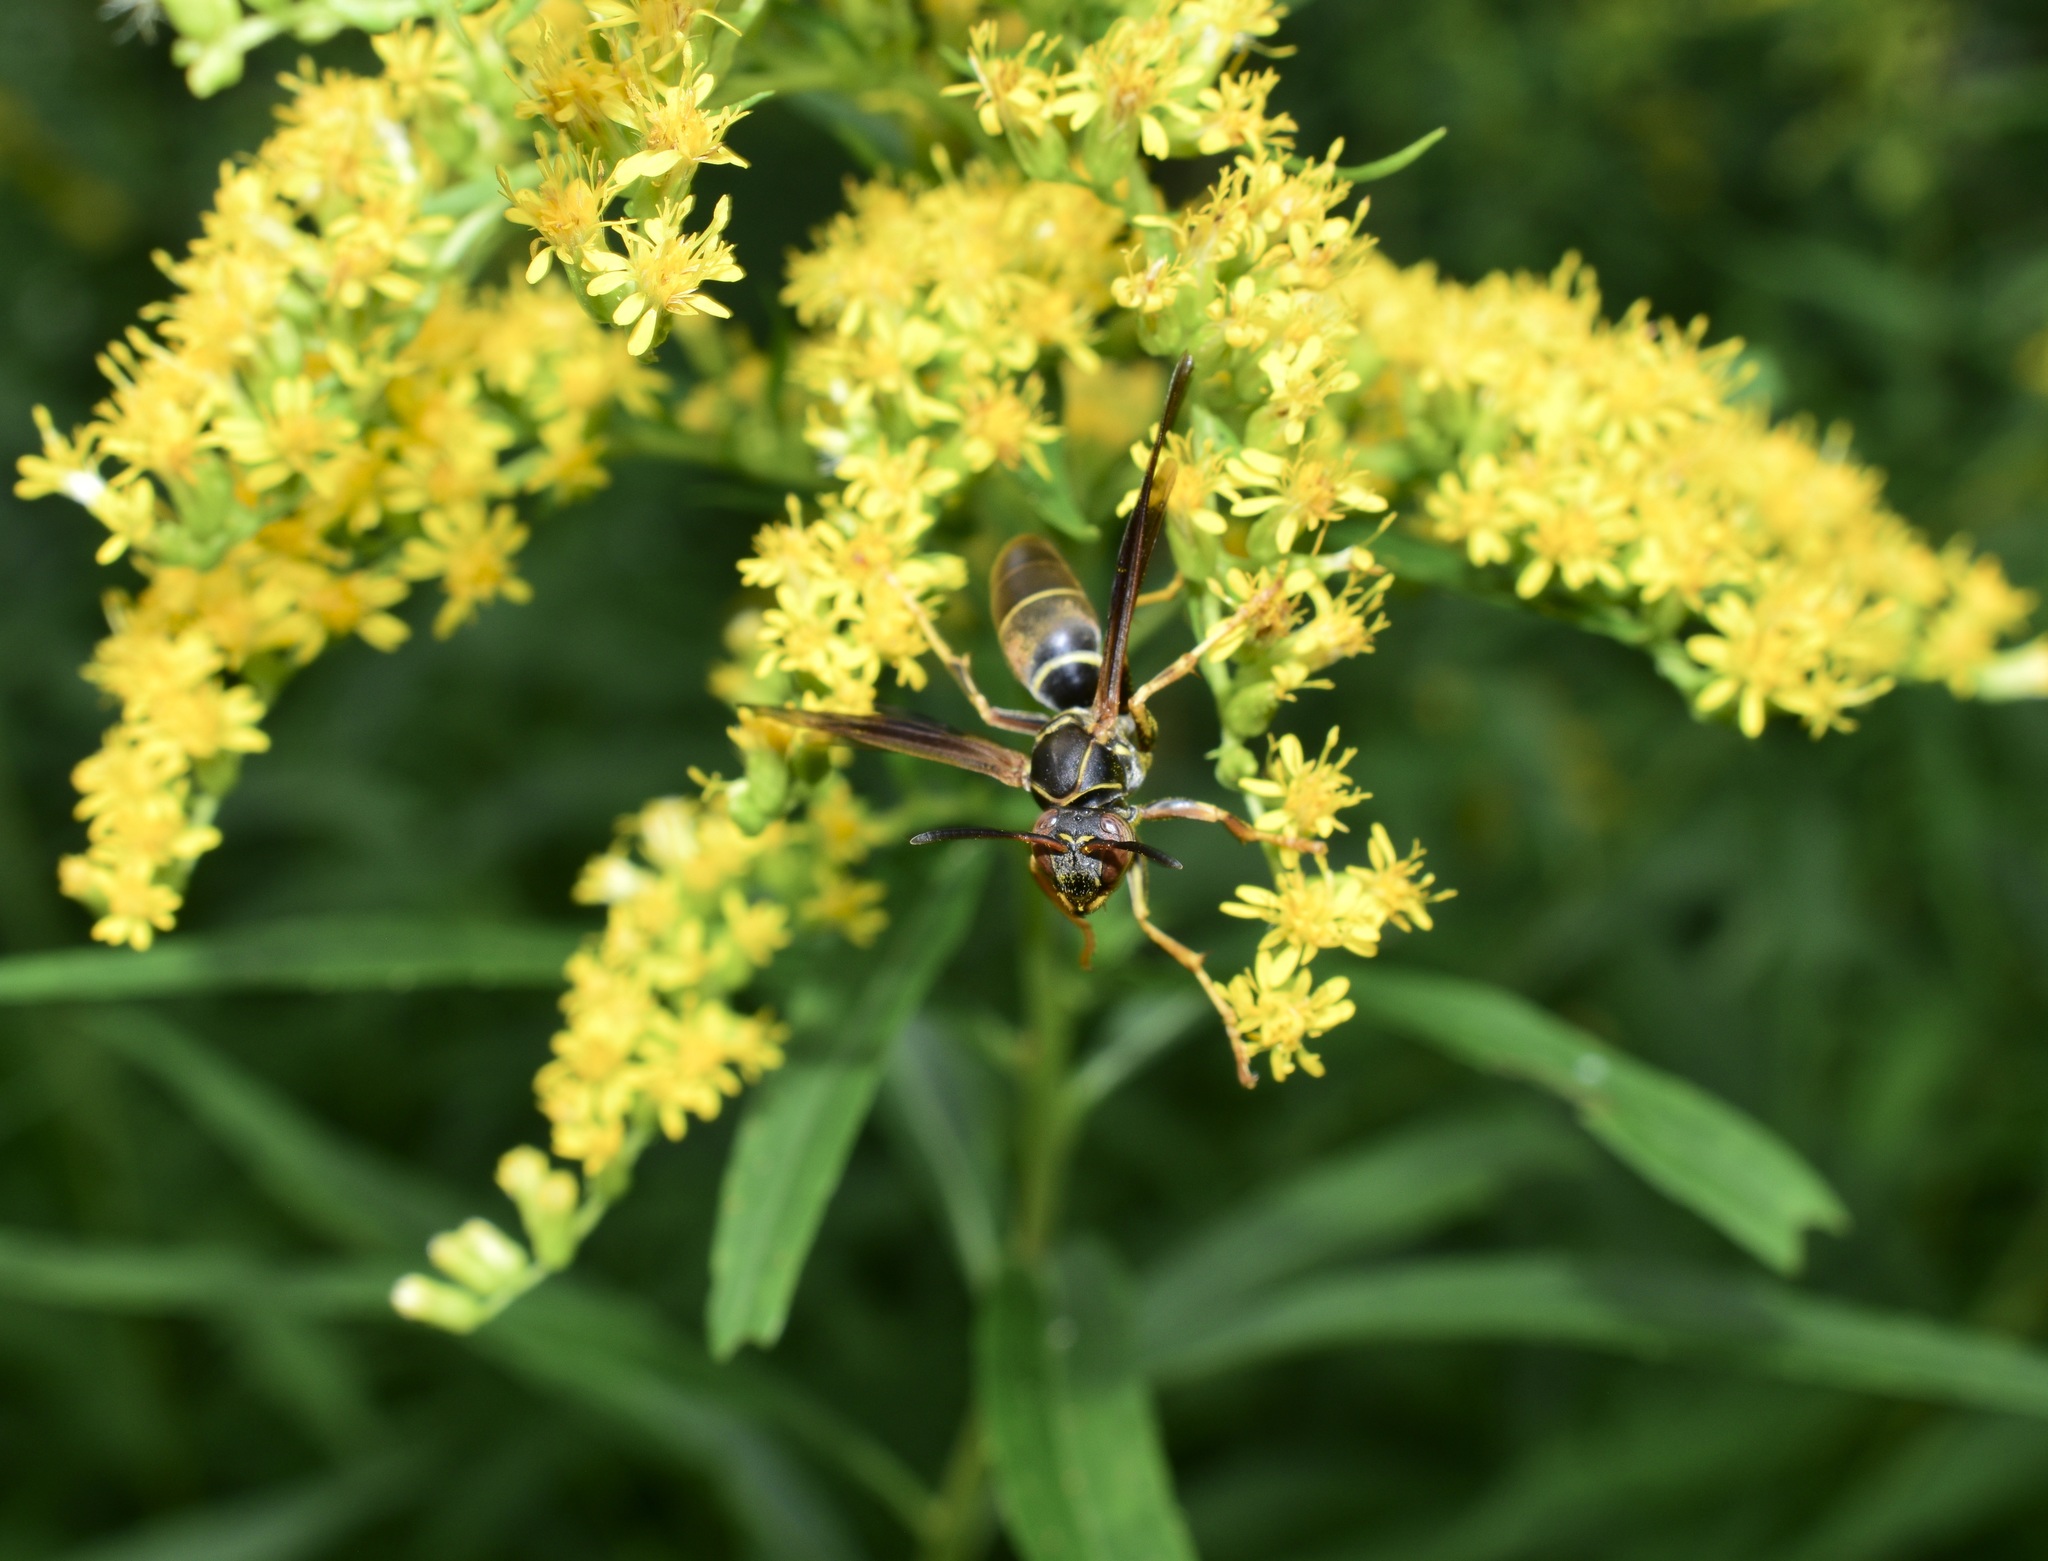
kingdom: Animalia
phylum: Arthropoda
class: Insecta
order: Hymenoptera
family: Eumenidae
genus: Polistes
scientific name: Polistes fuscatus
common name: Dark paper wasp
